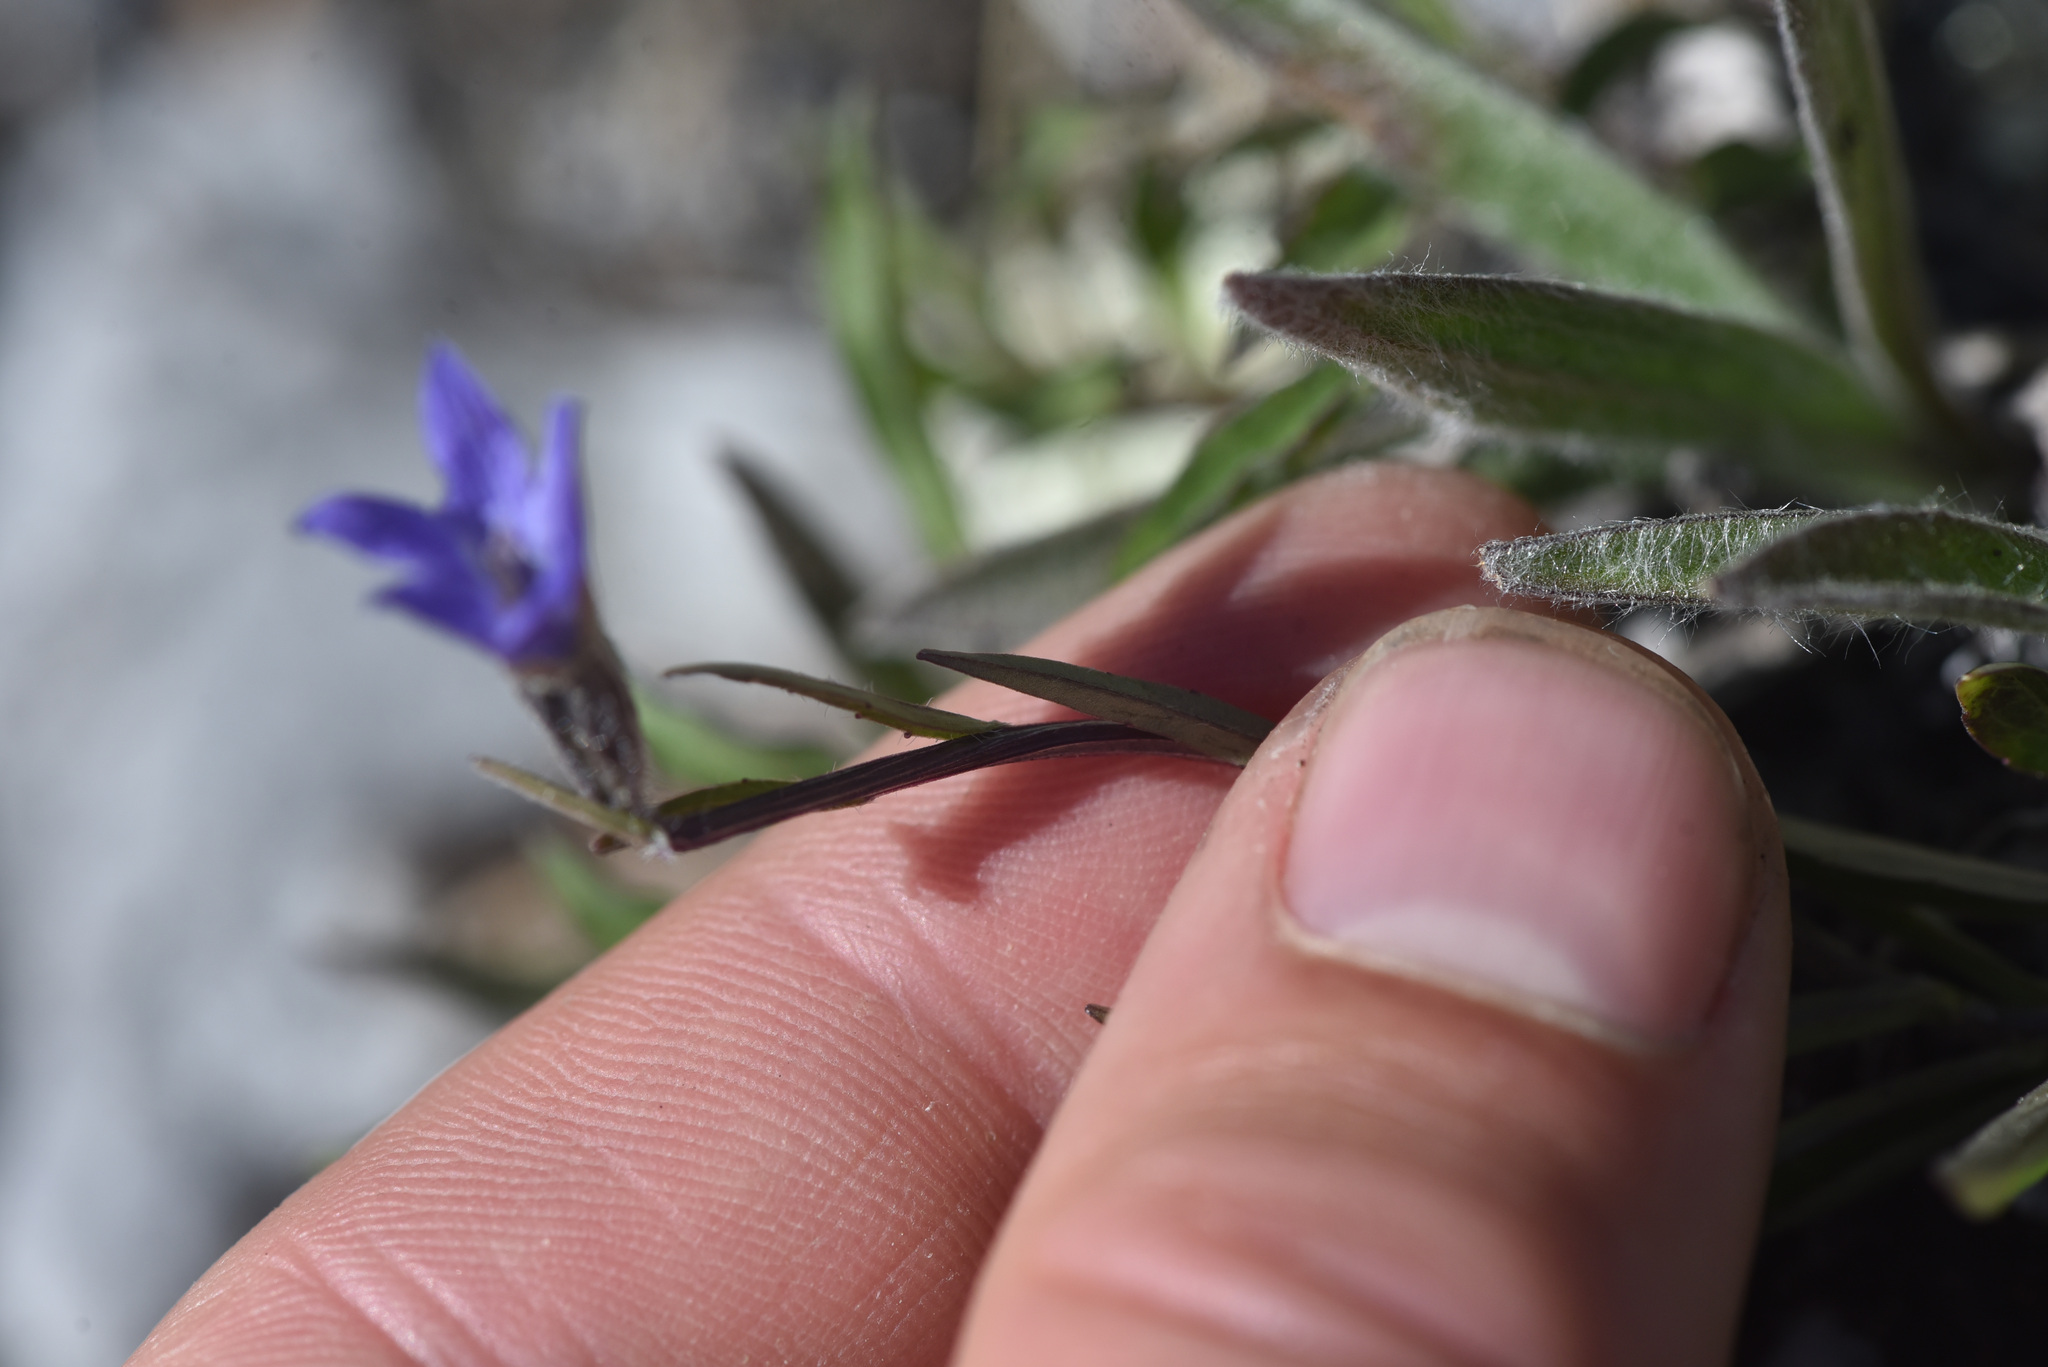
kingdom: Plantae
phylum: Tracheophyta
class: Magnoliopsida
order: Asterales
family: Campanulaceae
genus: Campanula
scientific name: Campanula uniflora
